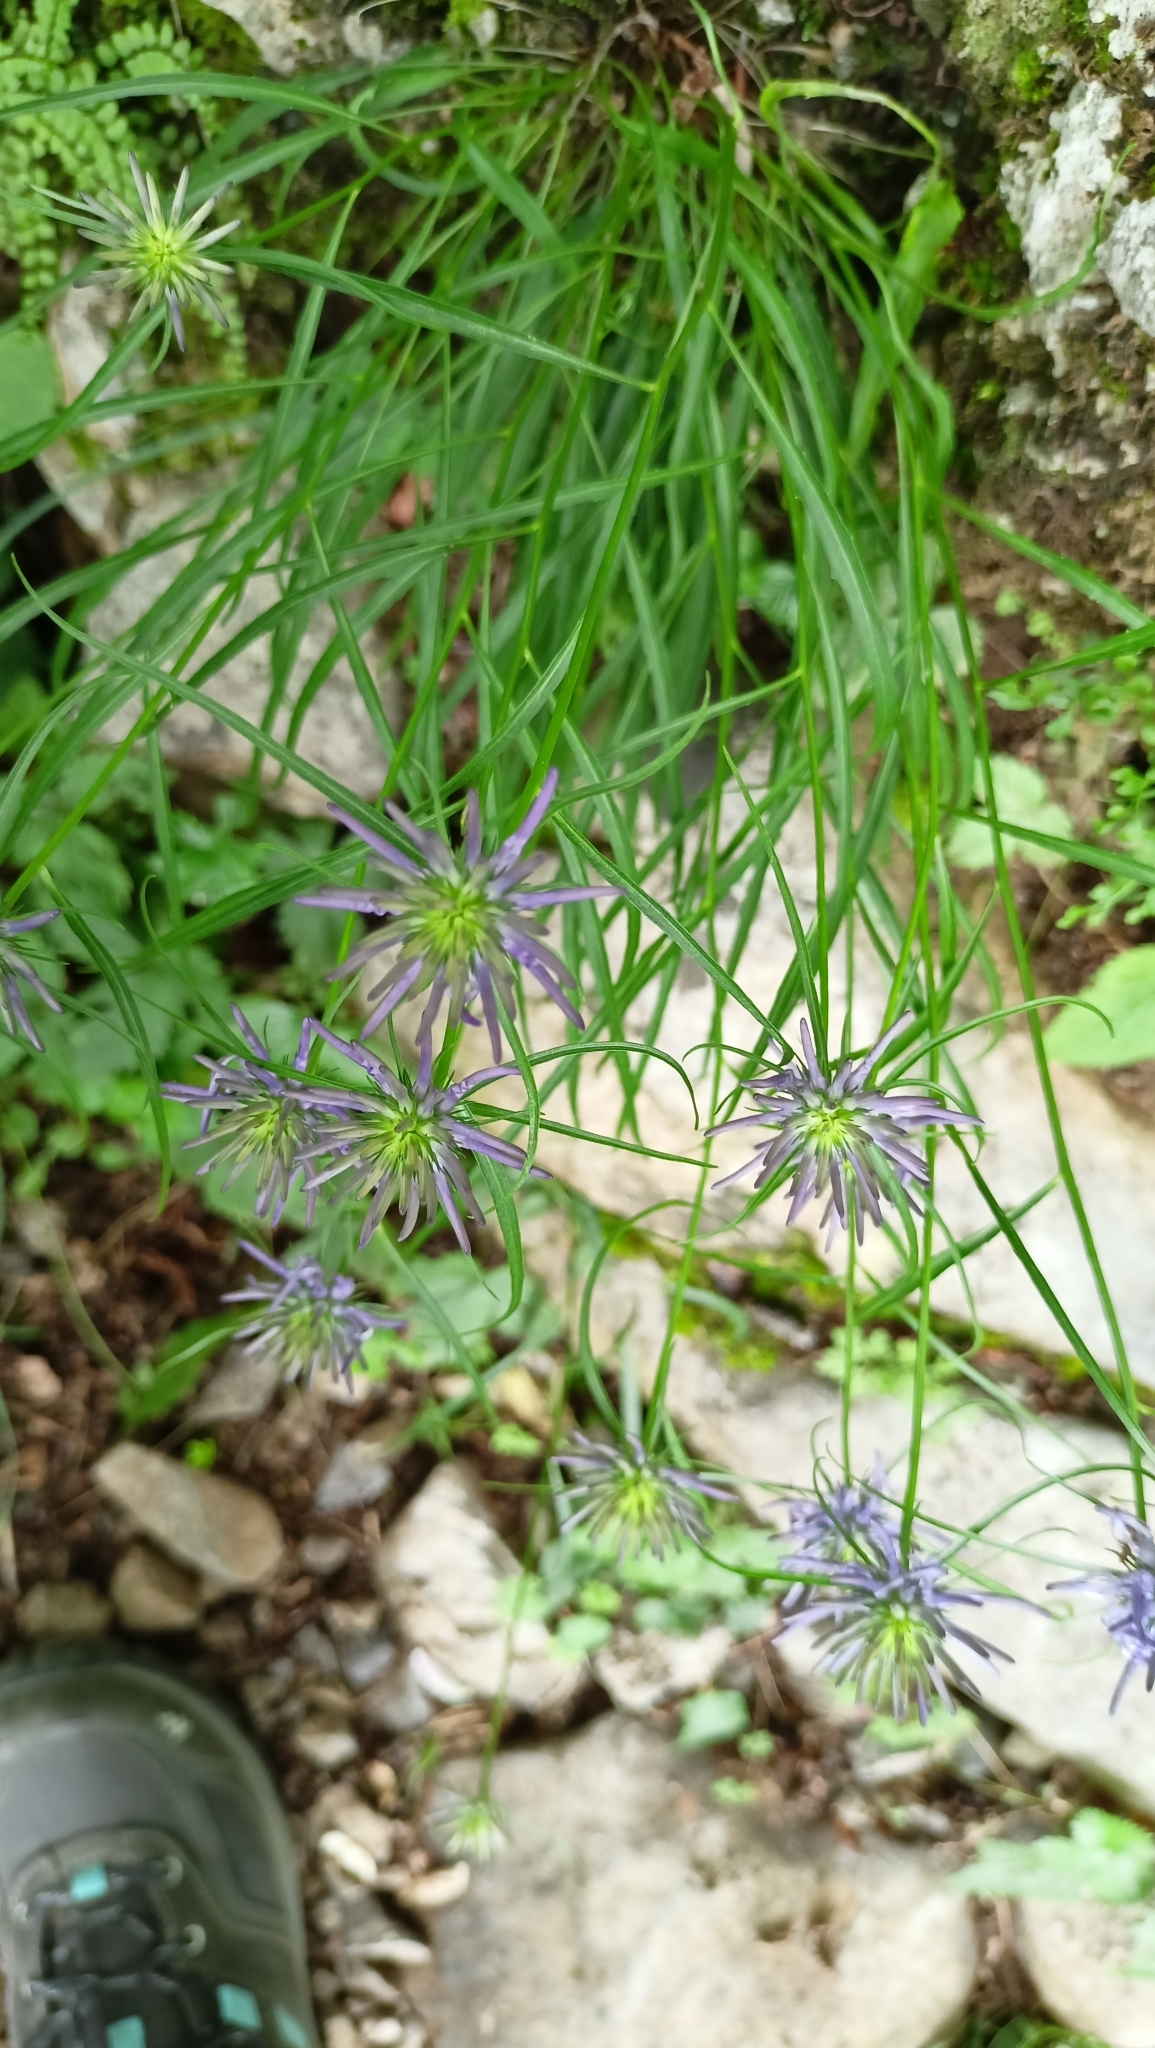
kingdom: Plantae
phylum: Tracheophyta
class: Magnoliopsida
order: Asterales
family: Campanulaceae
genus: Phyteuma
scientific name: Phyteuma scheuchzeri
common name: Oxford rampion
